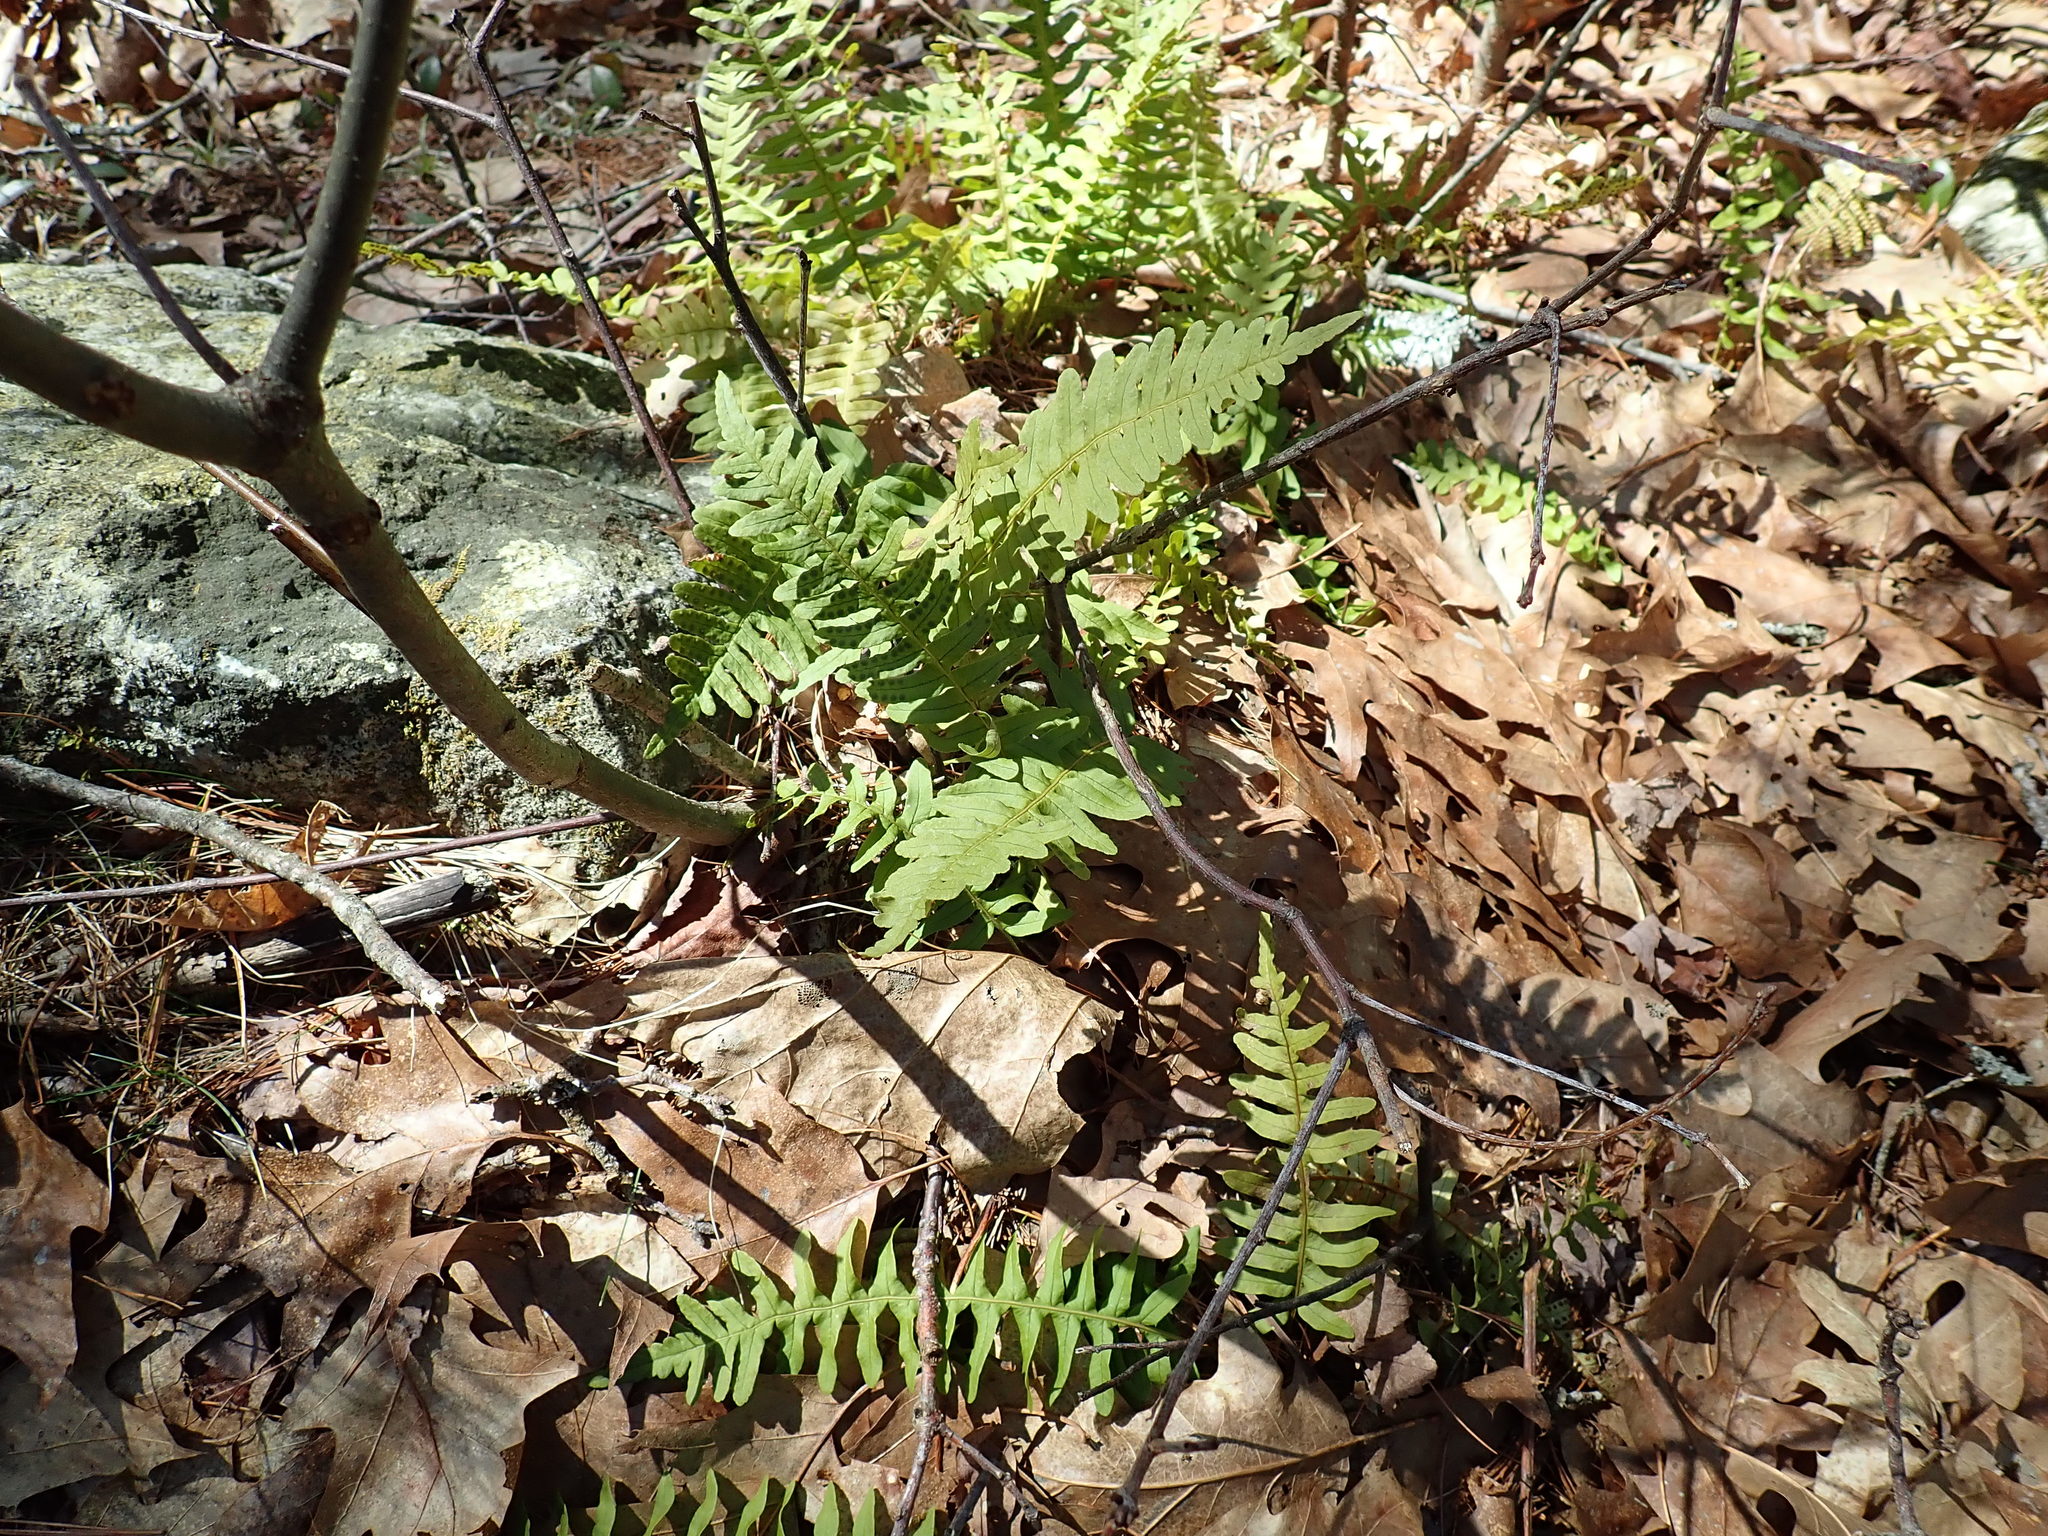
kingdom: Plantae
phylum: Tracheophyta
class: Polypodiopsida
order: Polypodiales
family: Polypodiaceae
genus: Polypodium
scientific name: Polypodium
